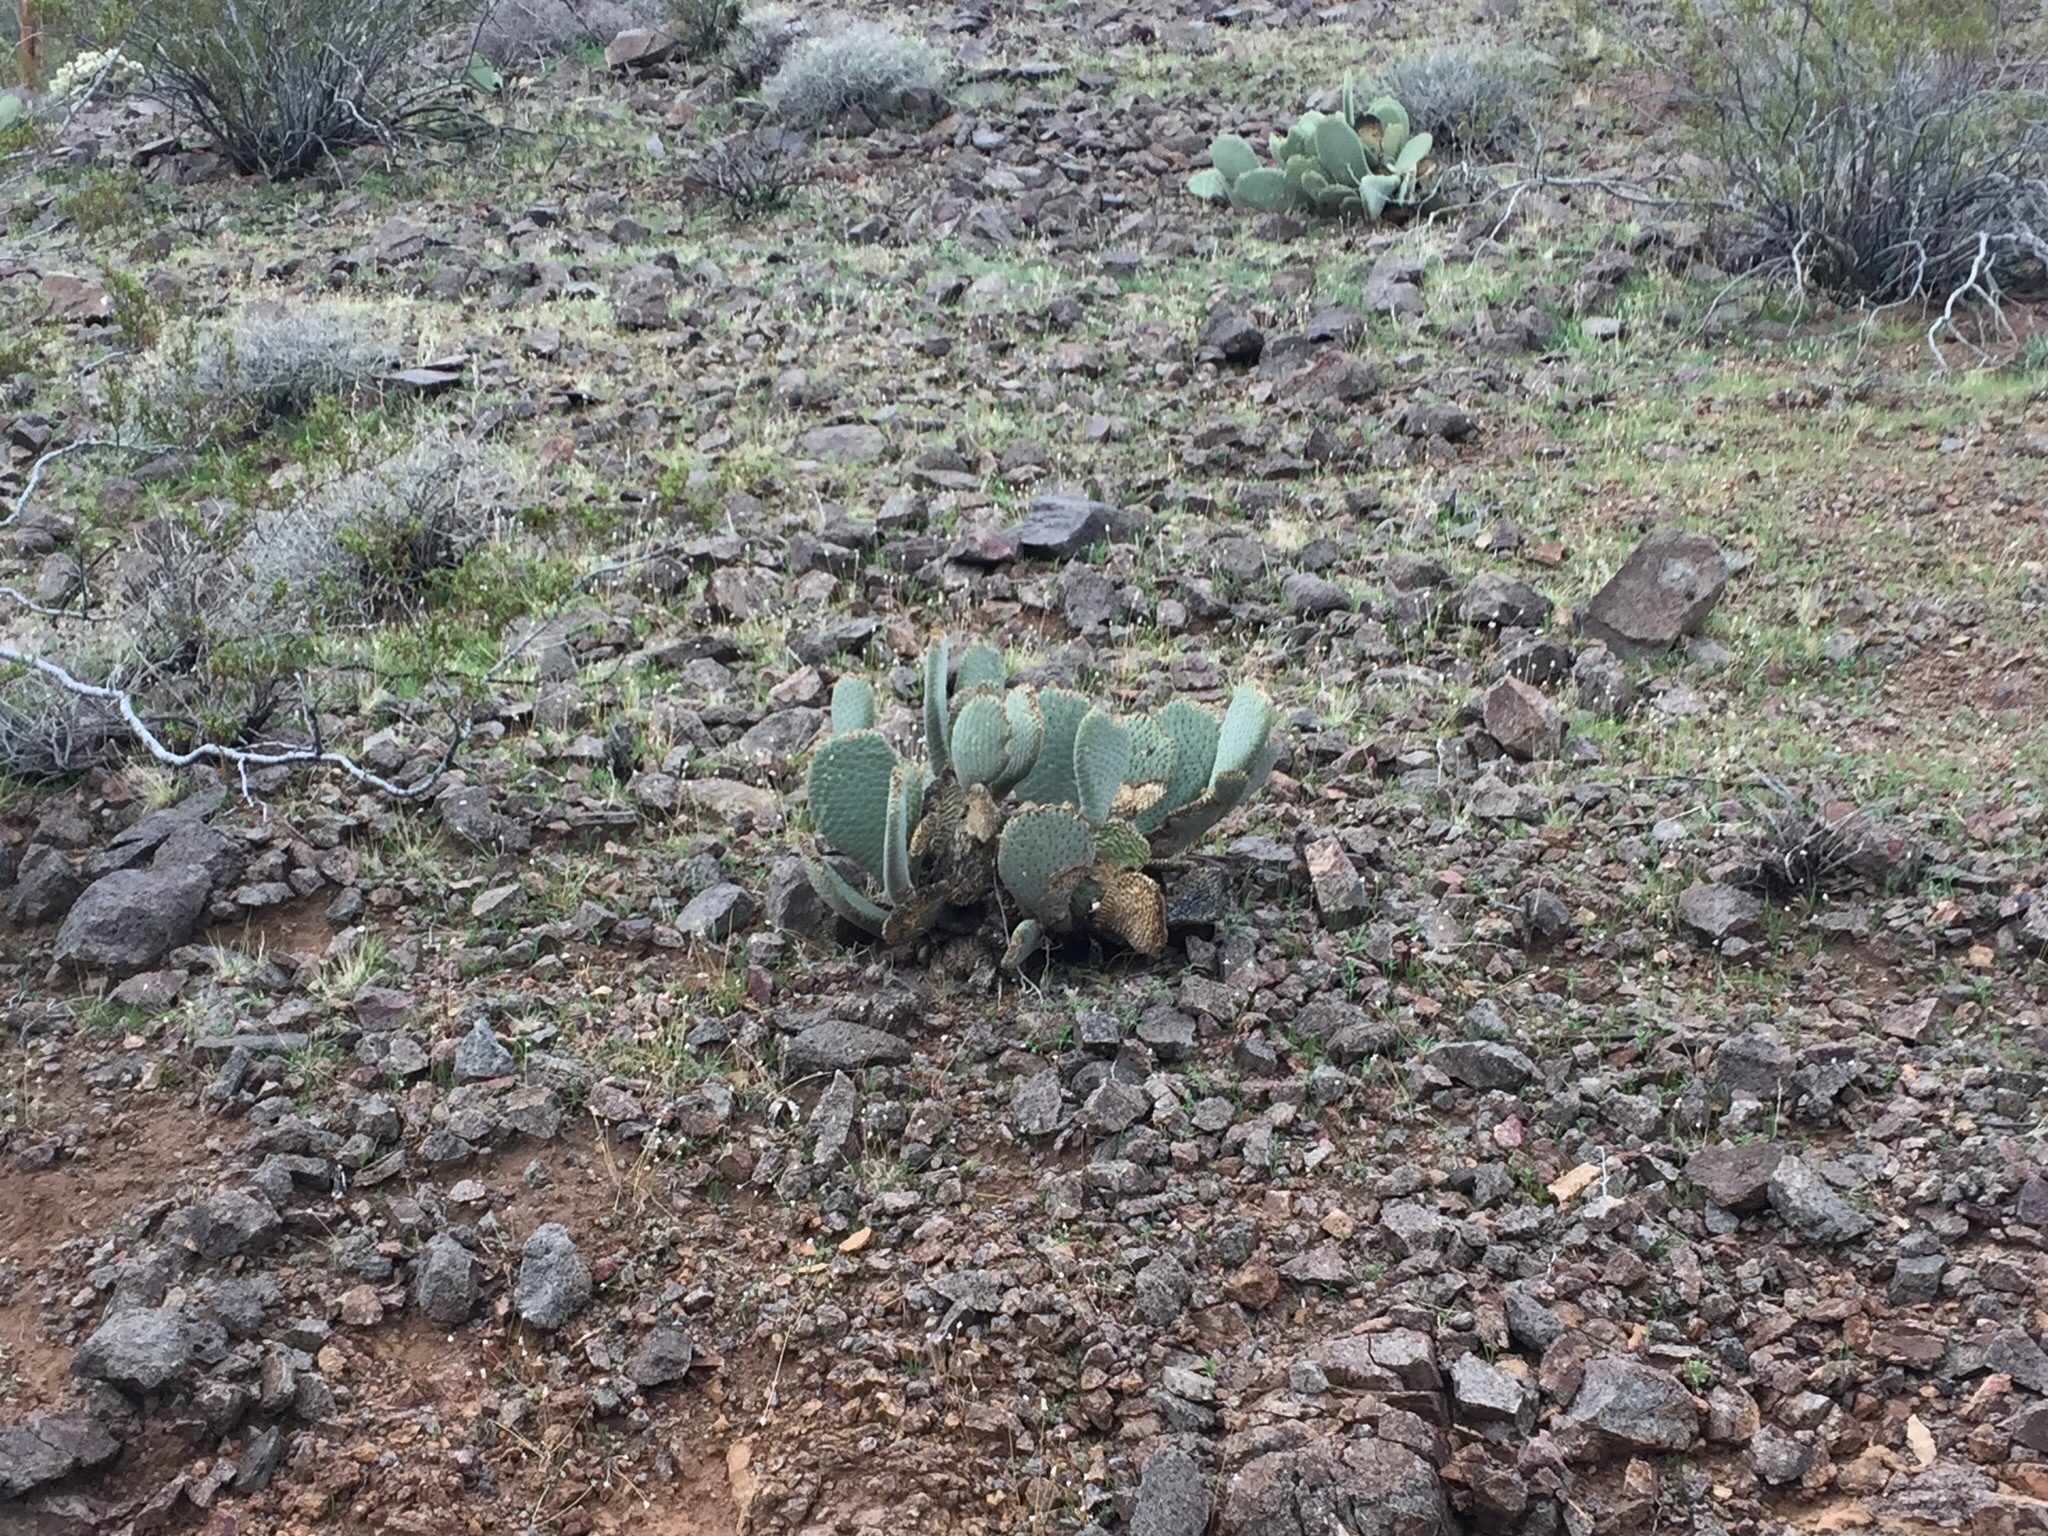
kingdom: Plantae
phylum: Tracheophyta
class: Magnoliopsida
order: Caryophyllales
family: Cactaceae
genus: Opuntia
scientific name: Opuntia basilaris
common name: Beavertail prickly-pear
